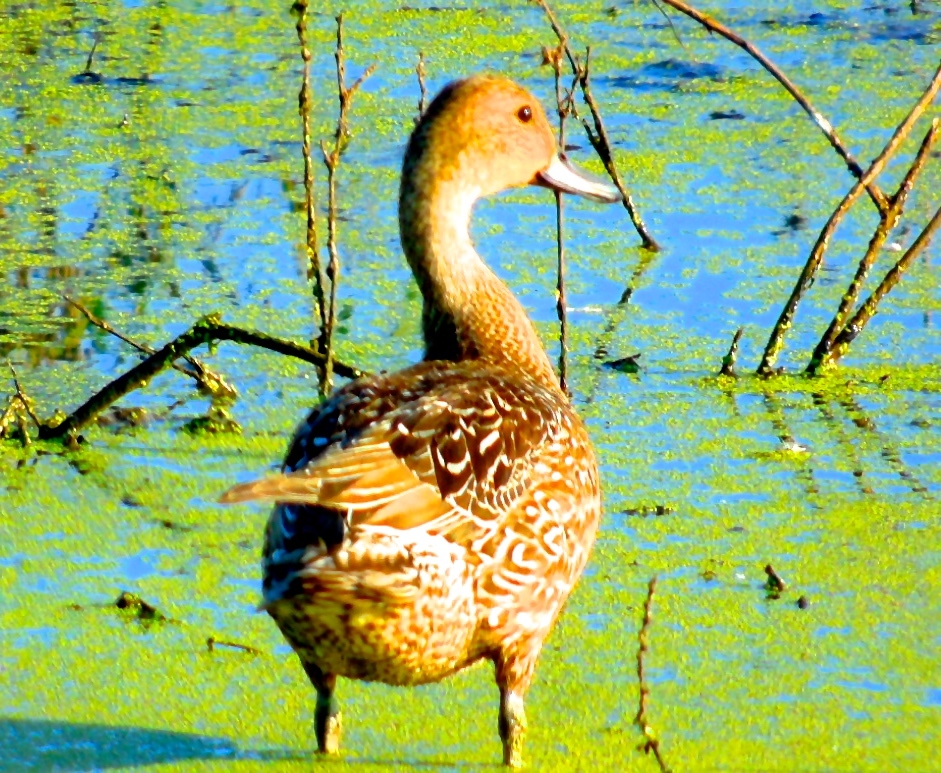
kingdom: Animalia
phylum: Chordata
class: Aves
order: Anseriformes
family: Anatidae
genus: Anas
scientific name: Anas acuta
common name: Northern pintail
